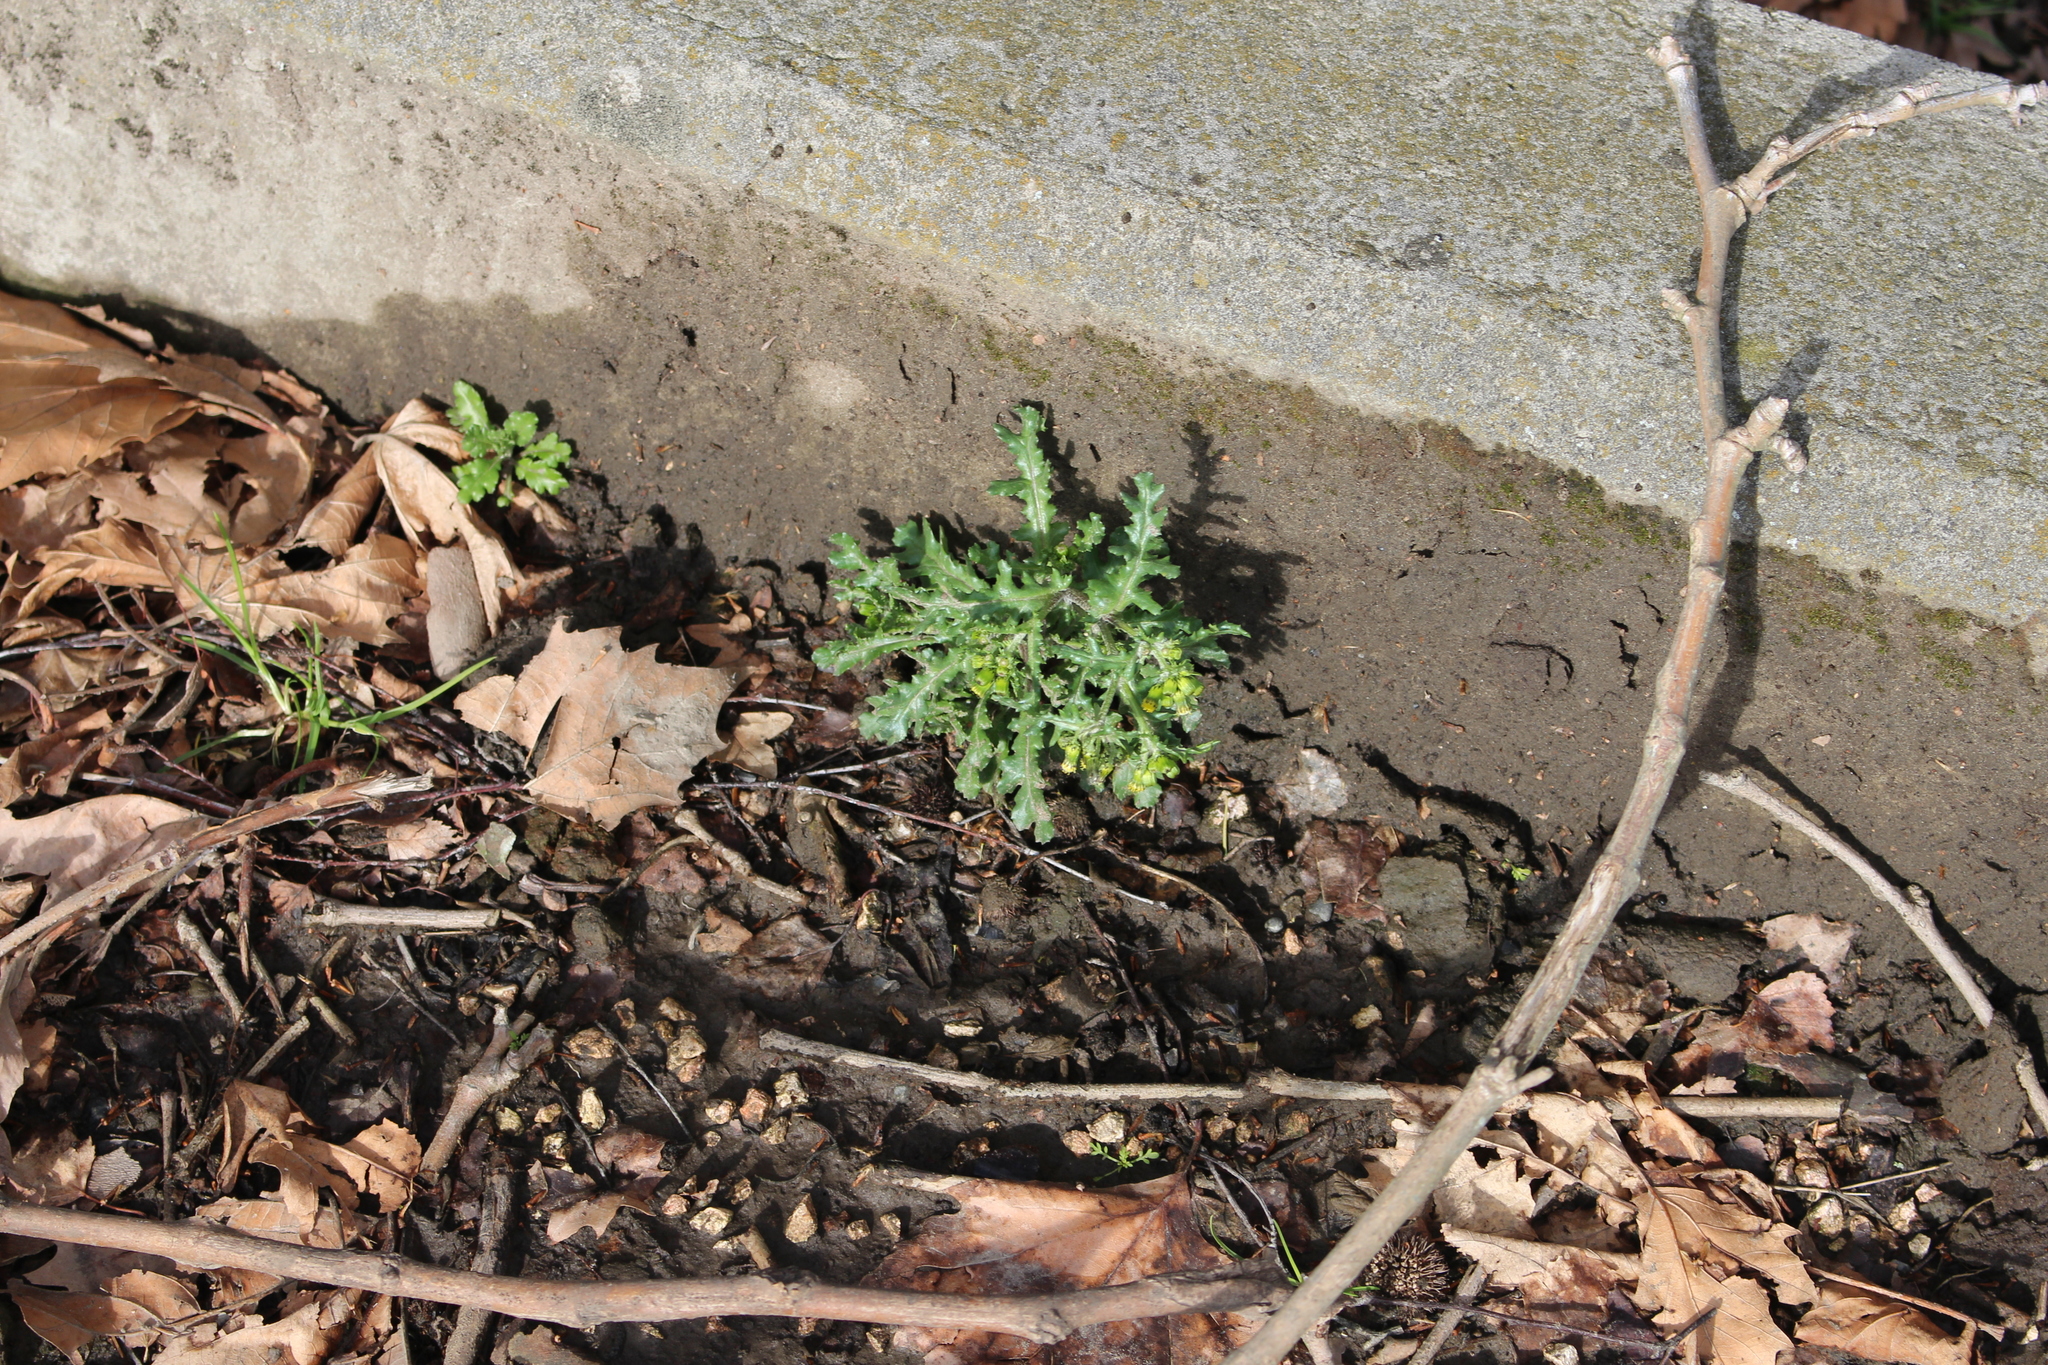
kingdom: Plantae
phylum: Tracheophyta
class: Magnoliopsida
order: Asterales
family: Asteraceae
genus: Senecio
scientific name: Senecio vulgaris
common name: Old-man-in-the-spring
